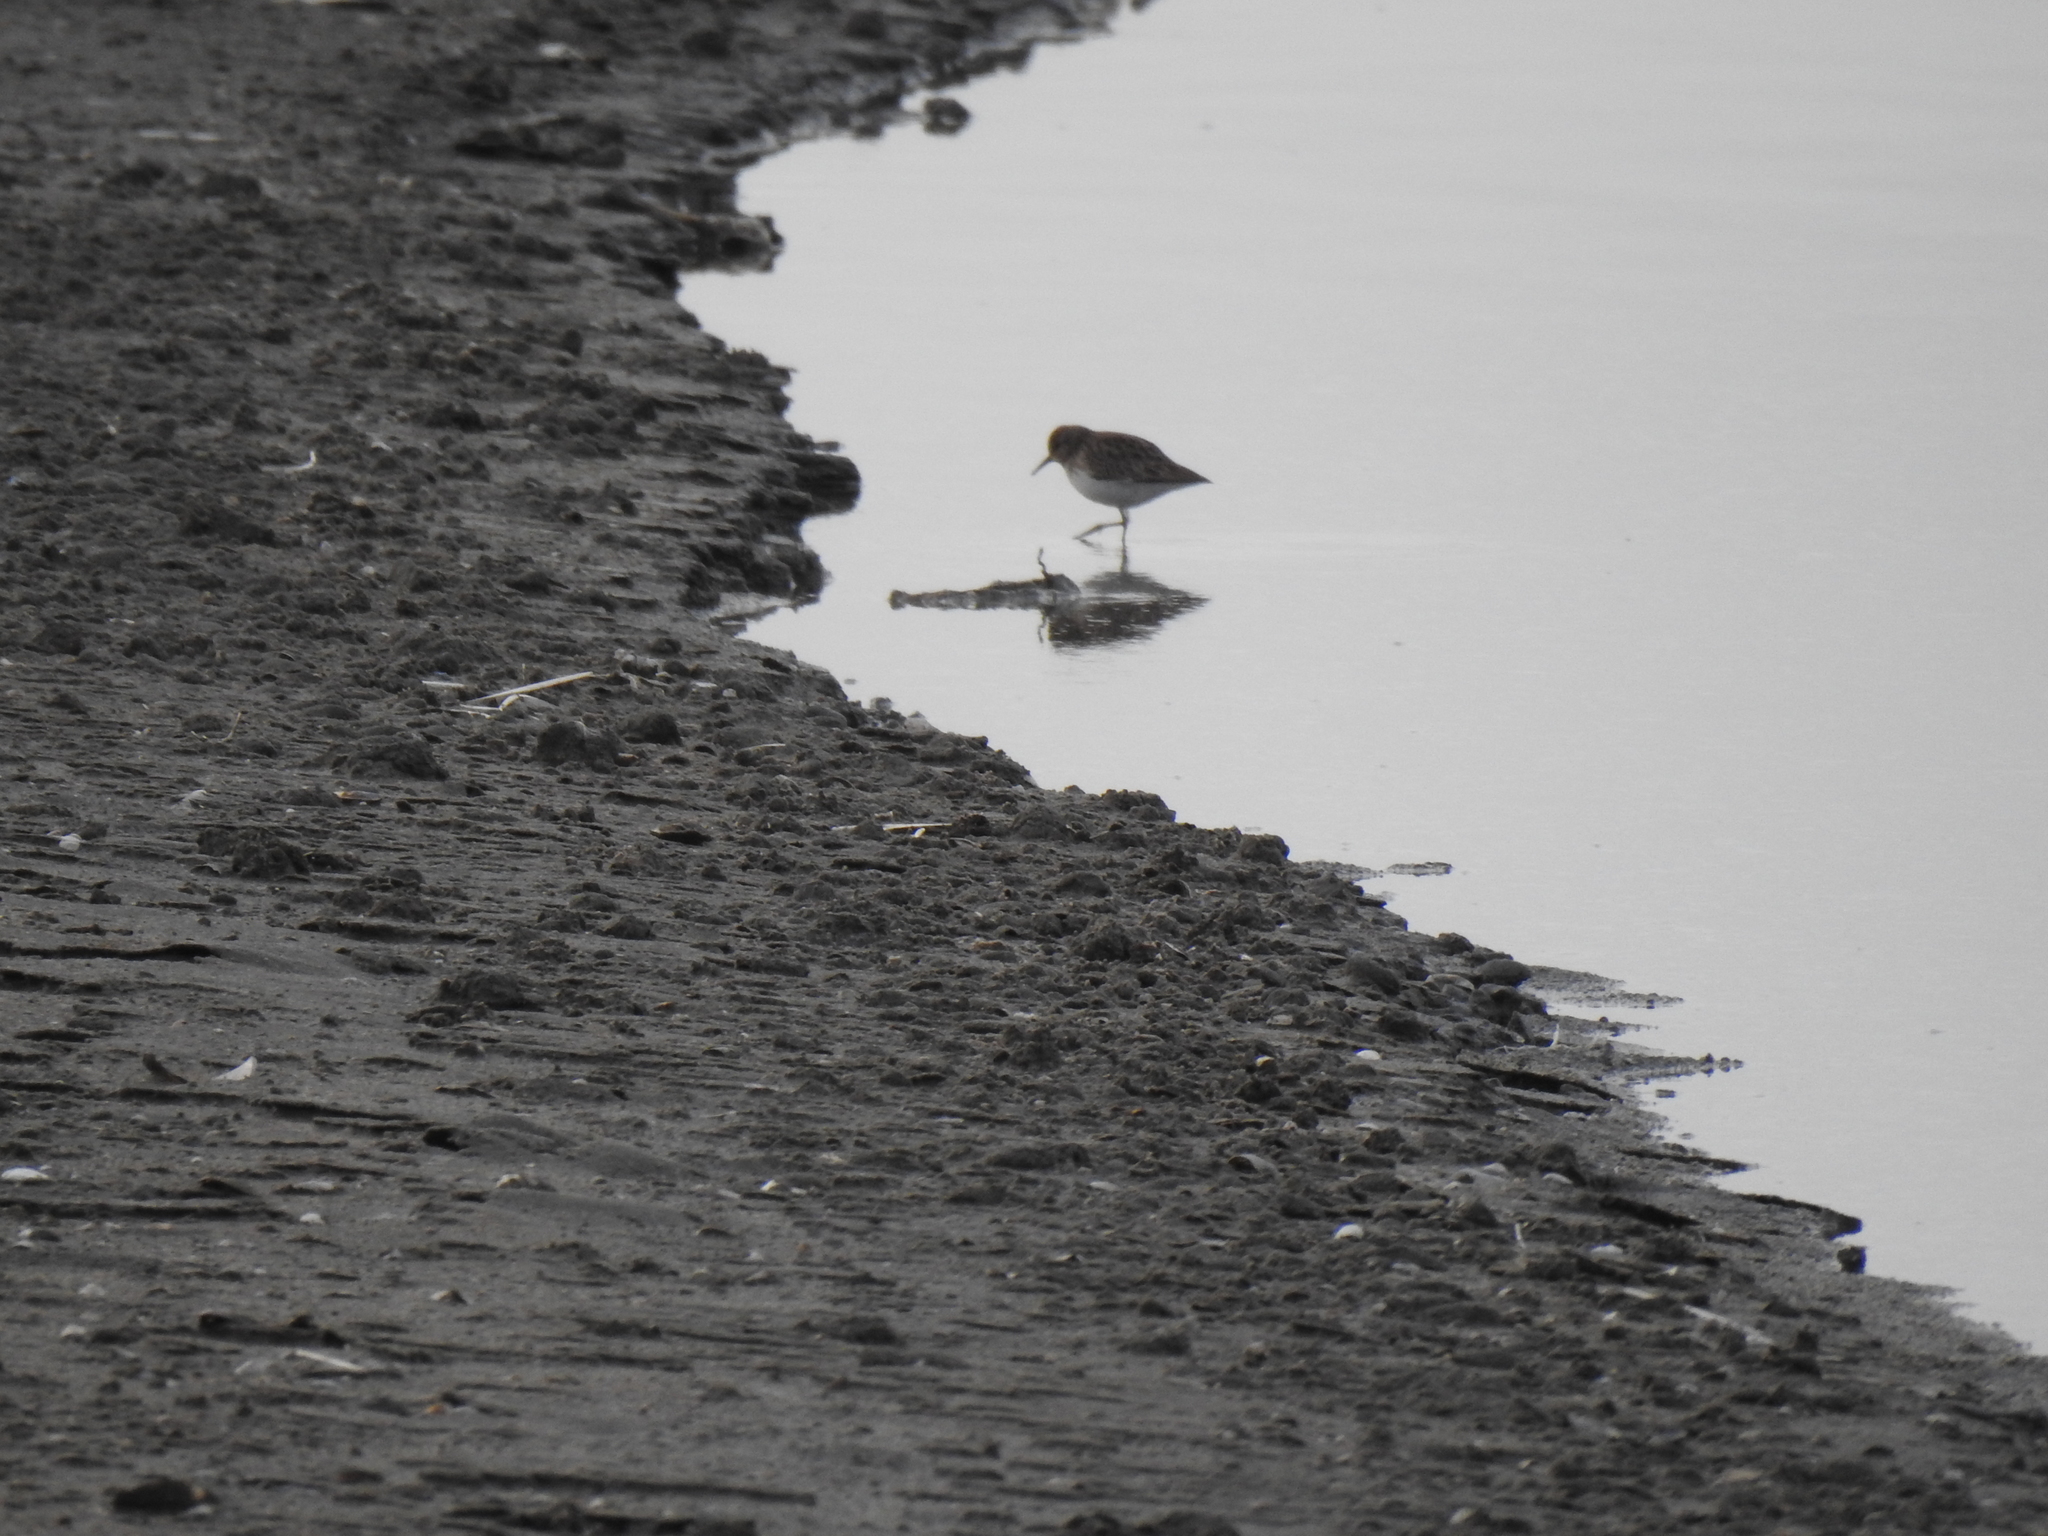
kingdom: Animalia
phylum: Chordata
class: Aves
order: Charadriiformes
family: Scolopacidae
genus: Calidris
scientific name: Calidris minutilla
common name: Least sandpiper
